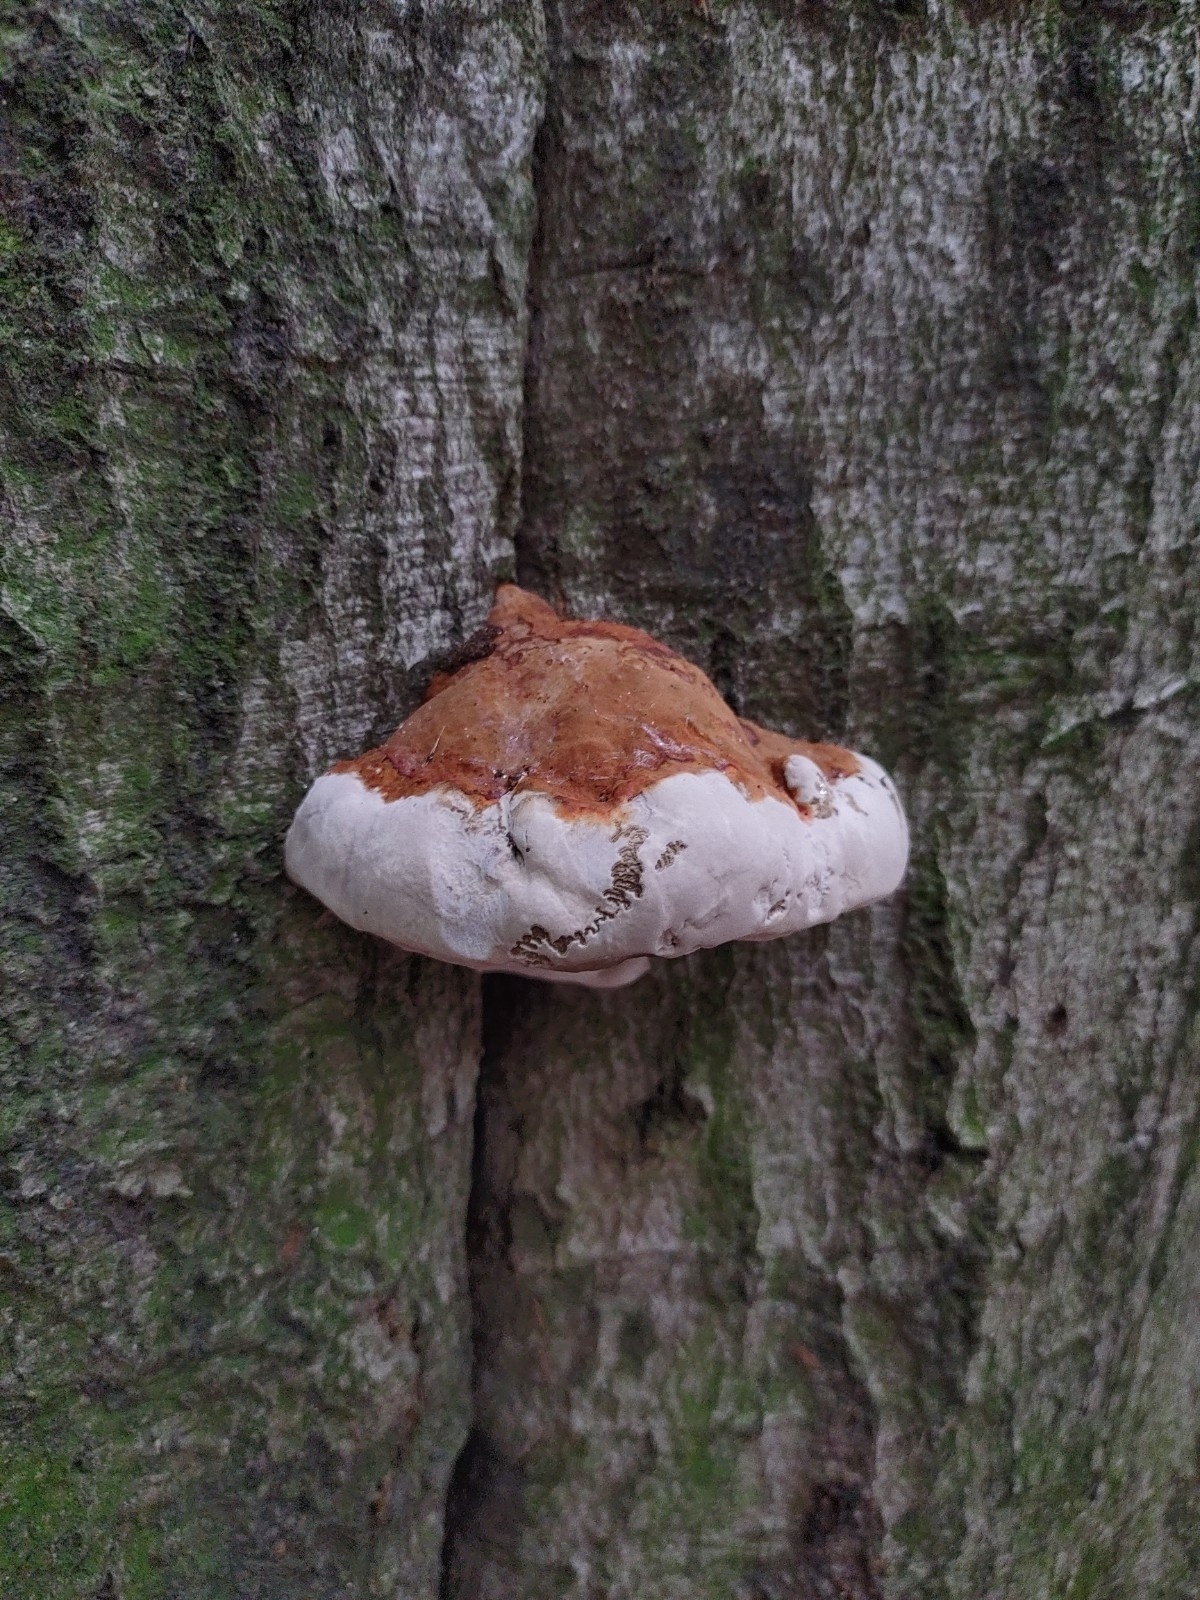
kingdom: Fungi
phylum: Basidiomycota
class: Agaricomycetes
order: Polyporales
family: Polyporaceae
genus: Fomes
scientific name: Fomes fomentarius
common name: Hoof fungus
